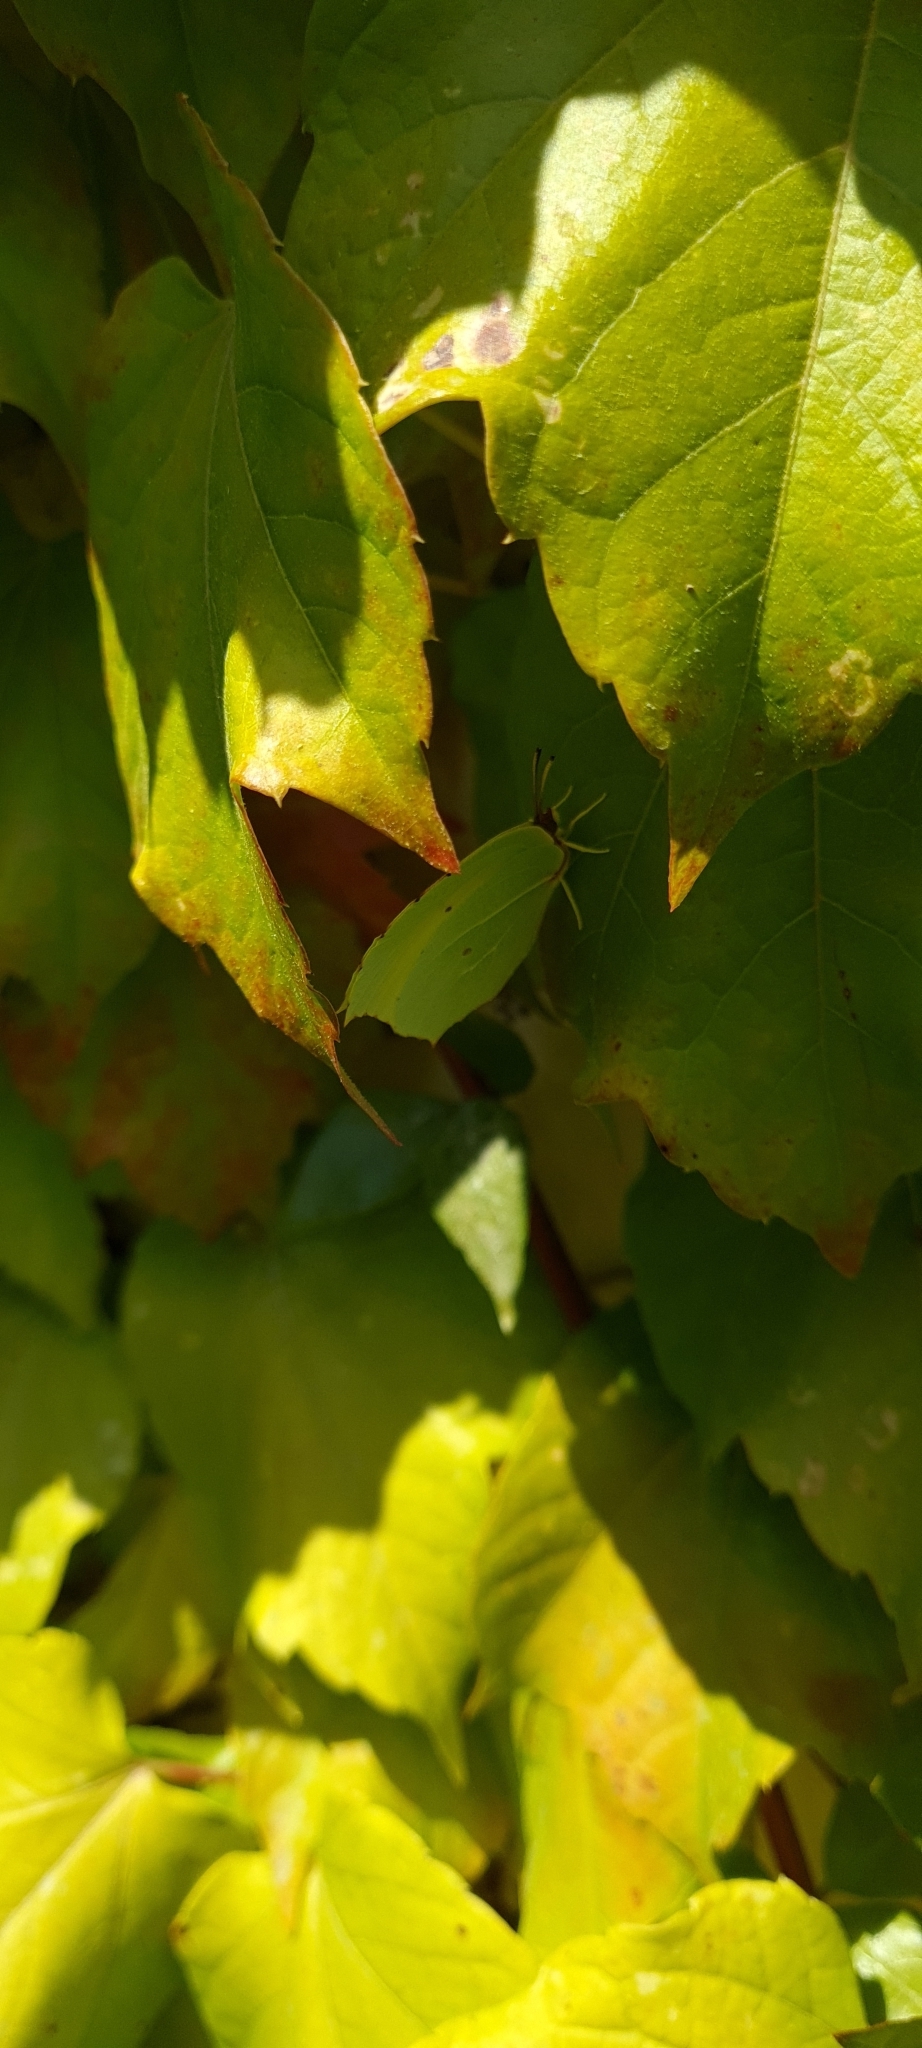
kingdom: Animalia
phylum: Arthropoda
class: Insecta
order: Lepidoptera
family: Pieridae
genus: Gonepteryx
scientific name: Gonepteryx rhamni
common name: Brimstone
